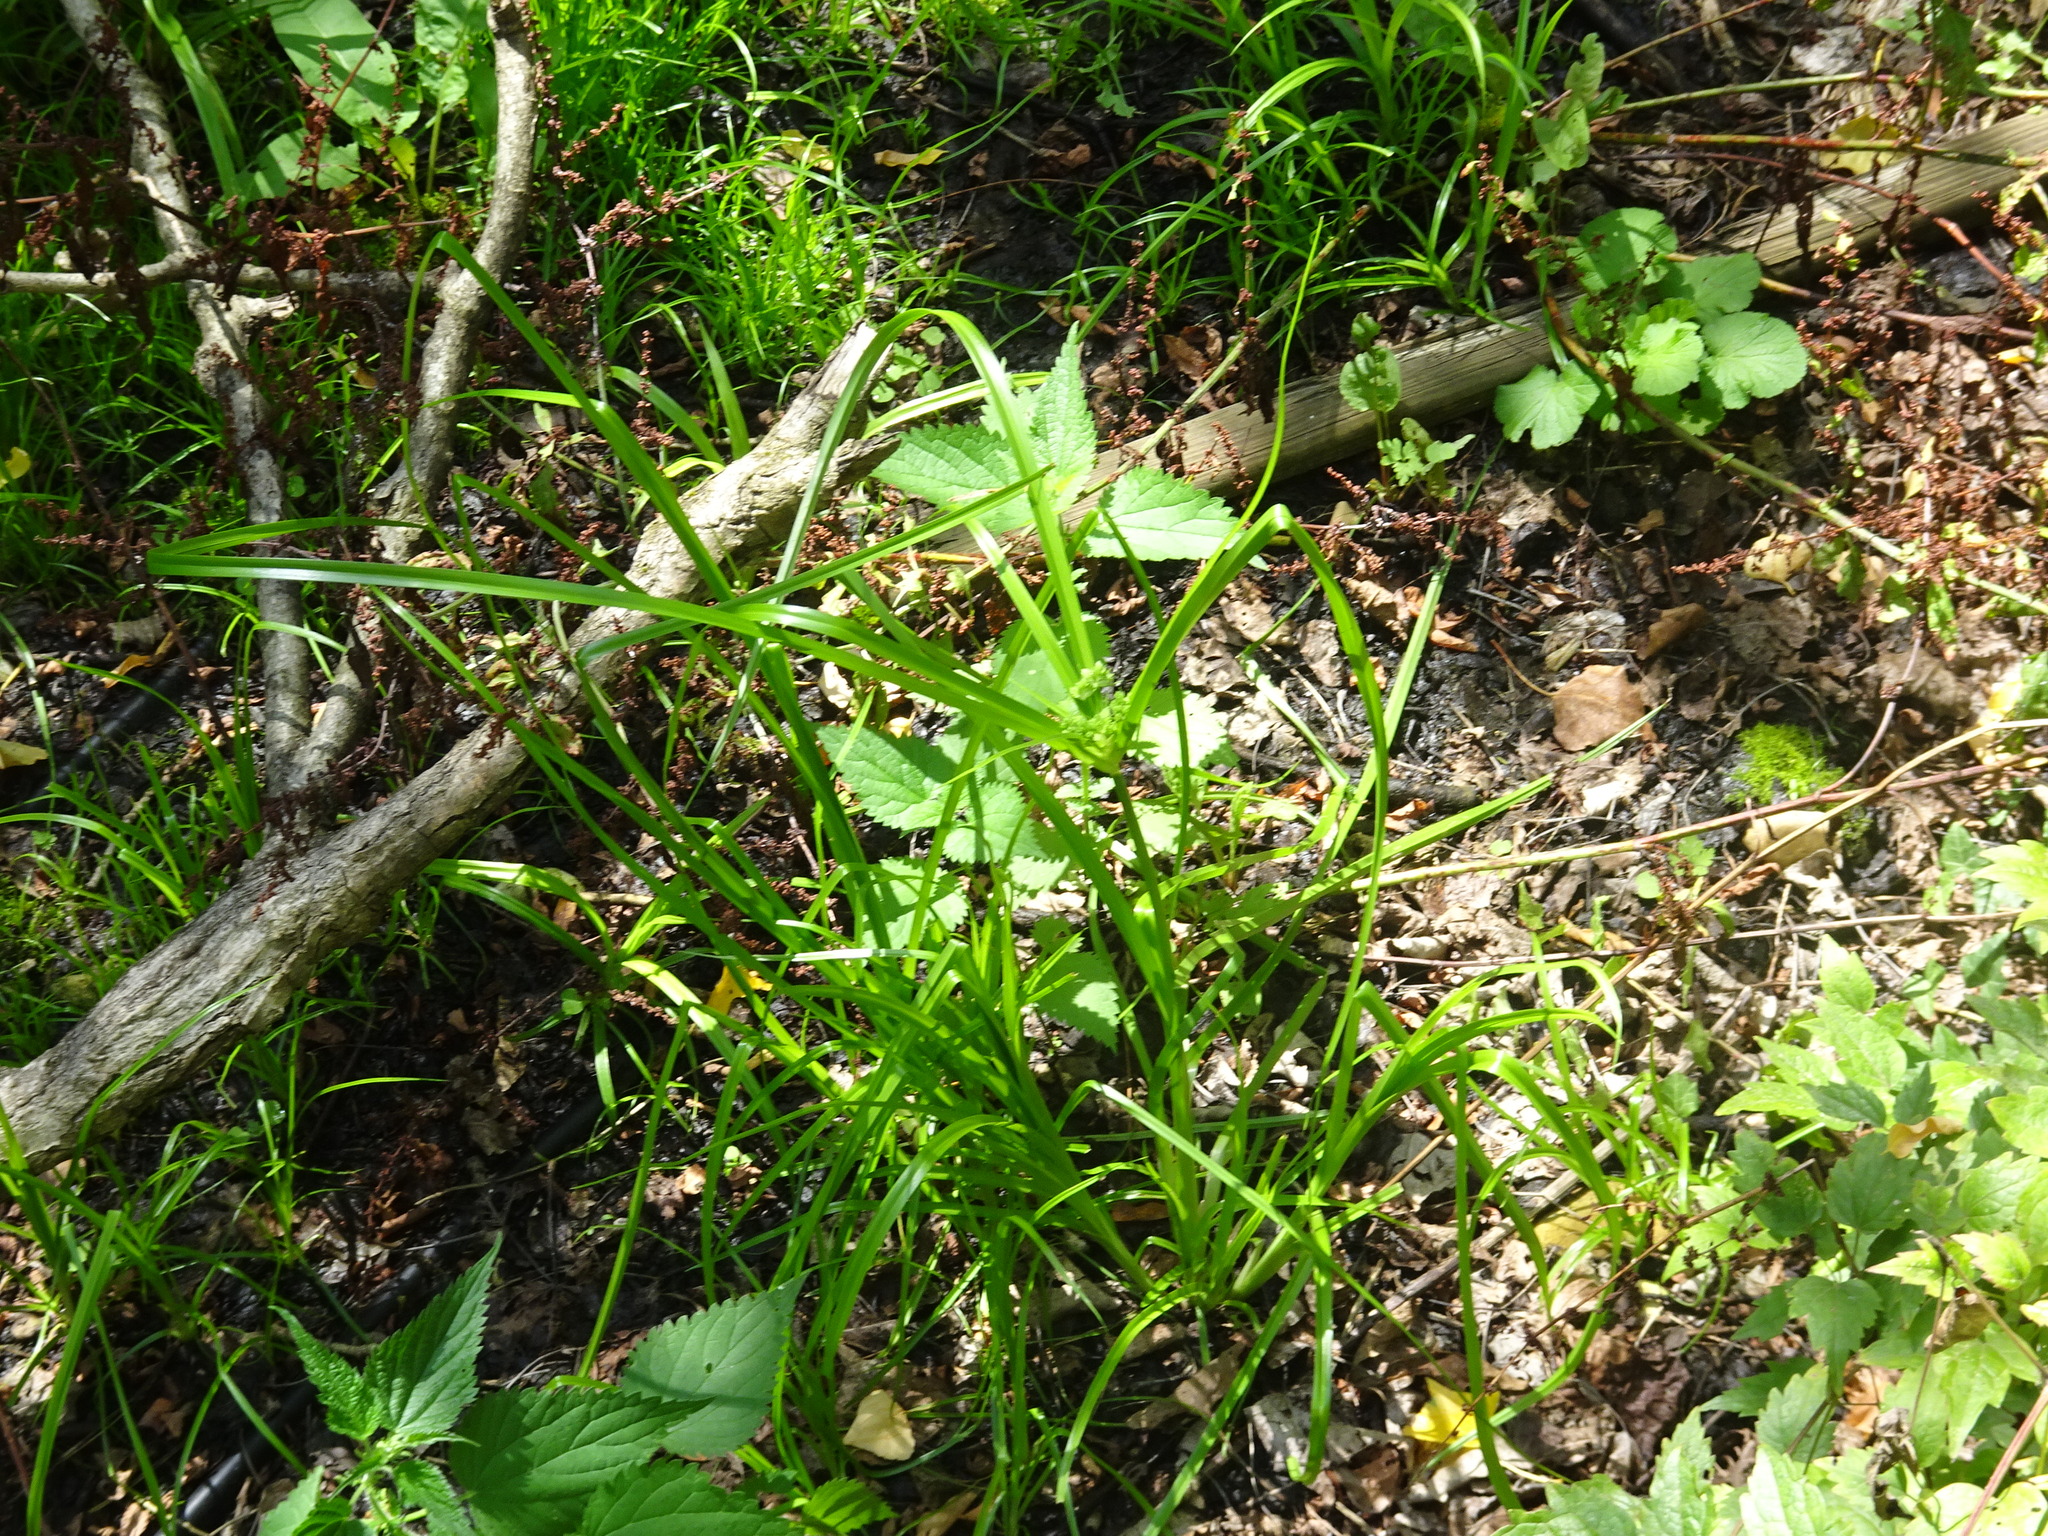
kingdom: Plantae
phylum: Tracheophyta
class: Liliopsida
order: Poales
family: Cyperaceae
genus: Cyperus
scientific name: Cyperus eragrostis
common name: Tall flatsedge
